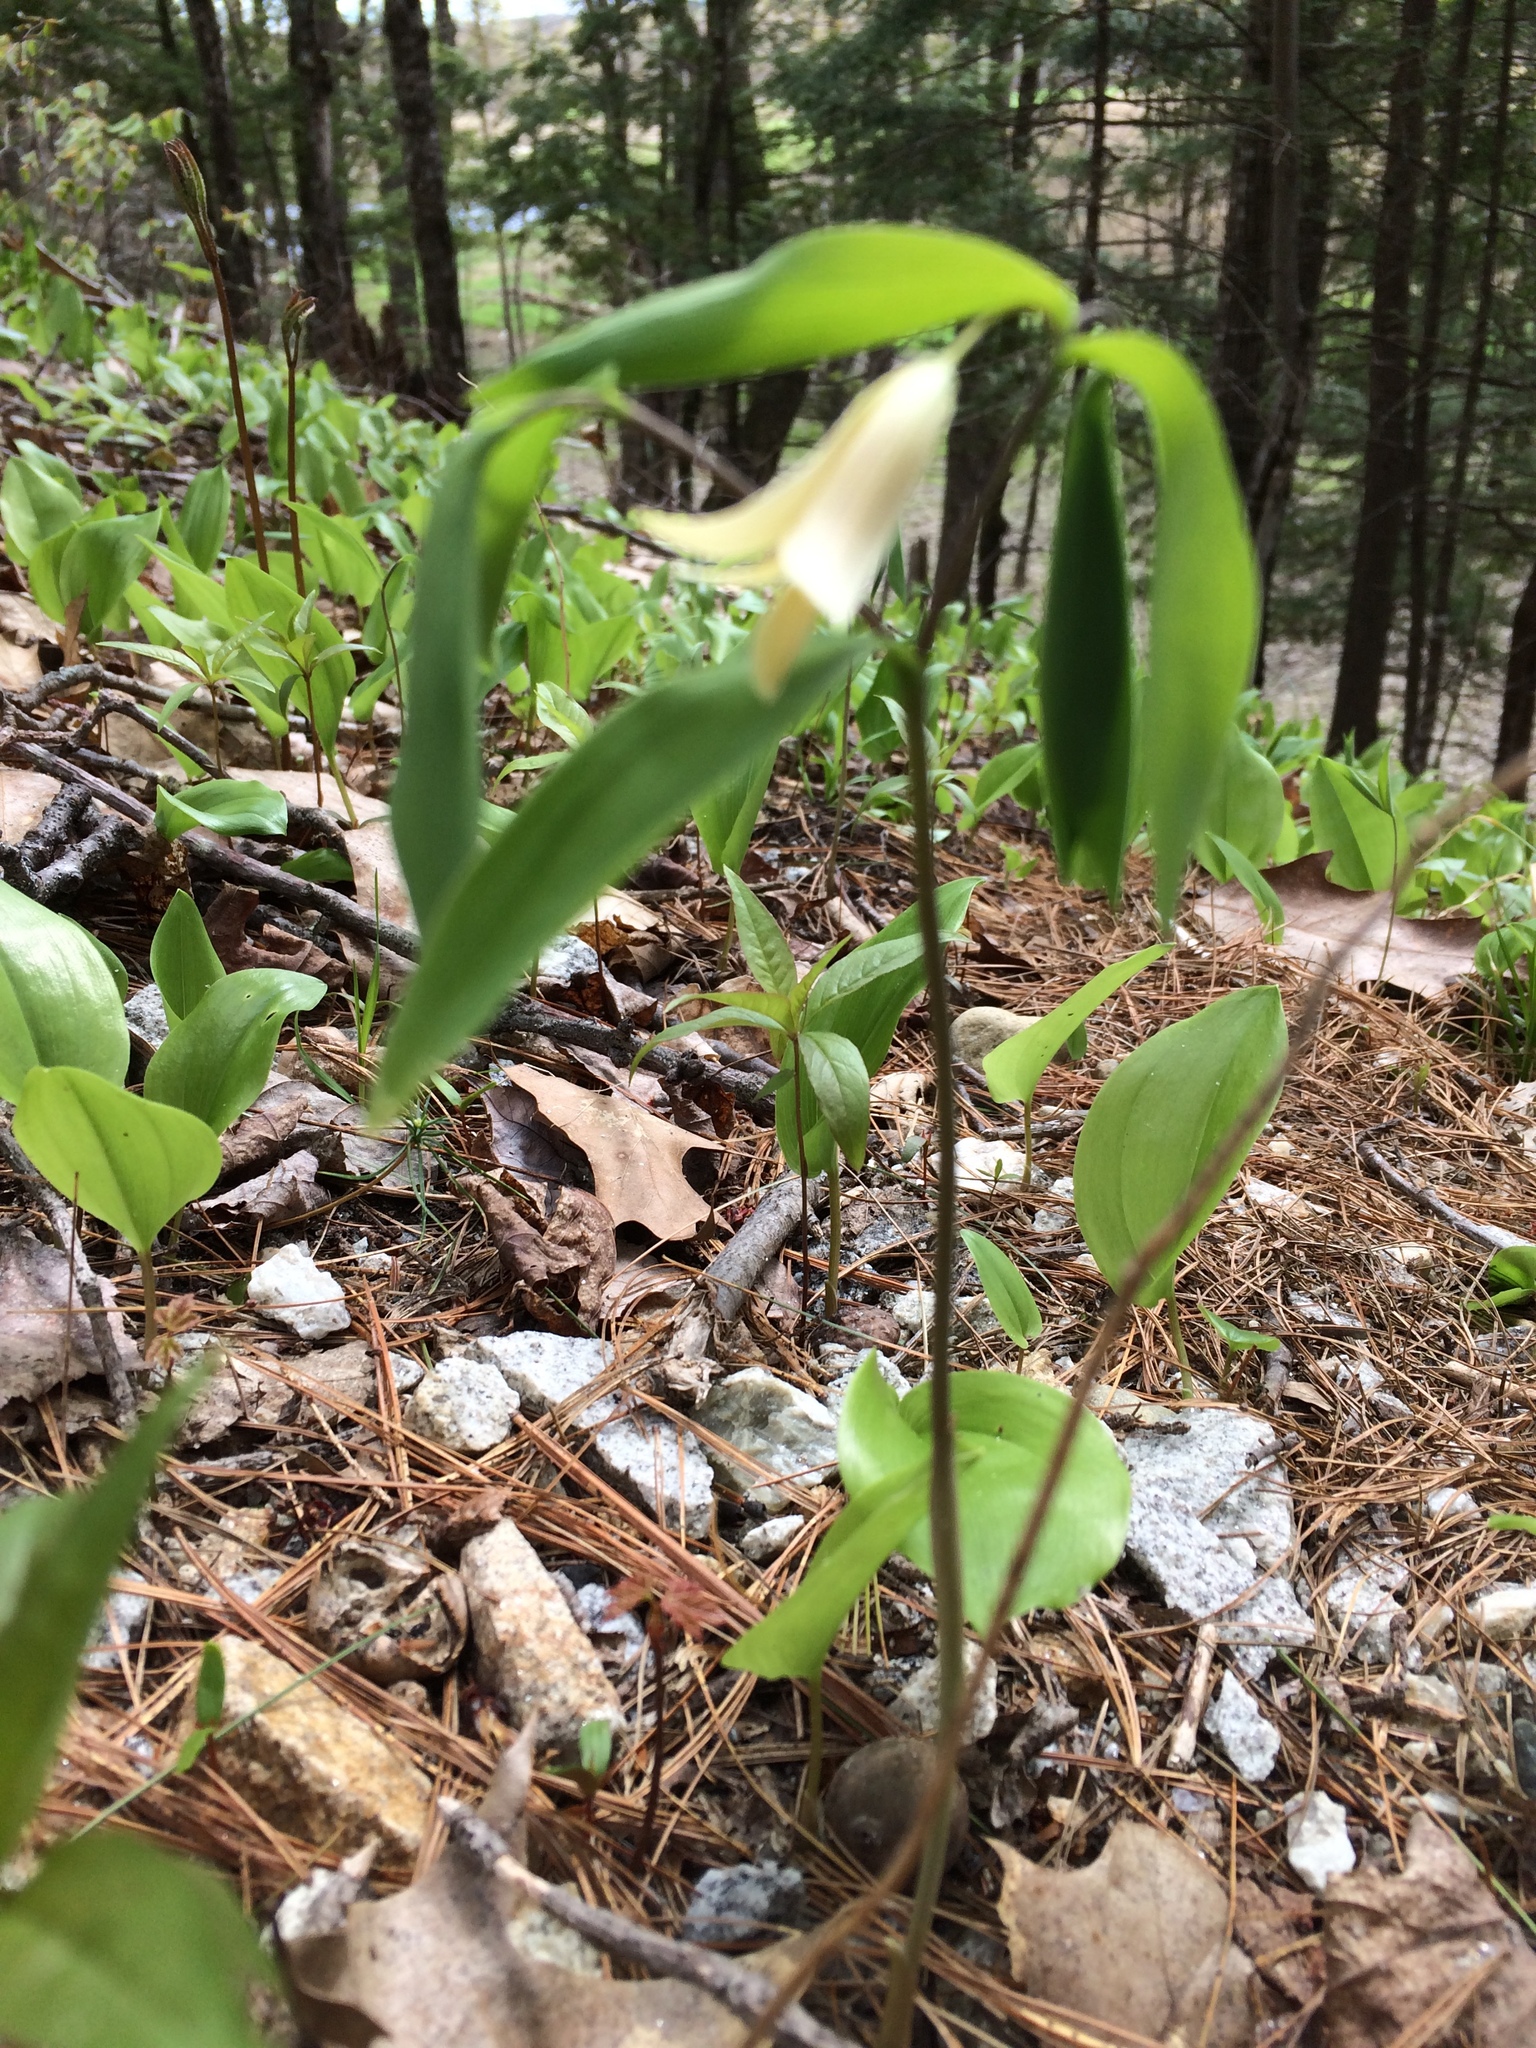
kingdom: Plantae
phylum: Tracheophyta
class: Liliopsida
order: Liliales
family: Colchicaceae
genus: Uvularia
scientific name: Uvularia sessilifolia
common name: Straw-lily
